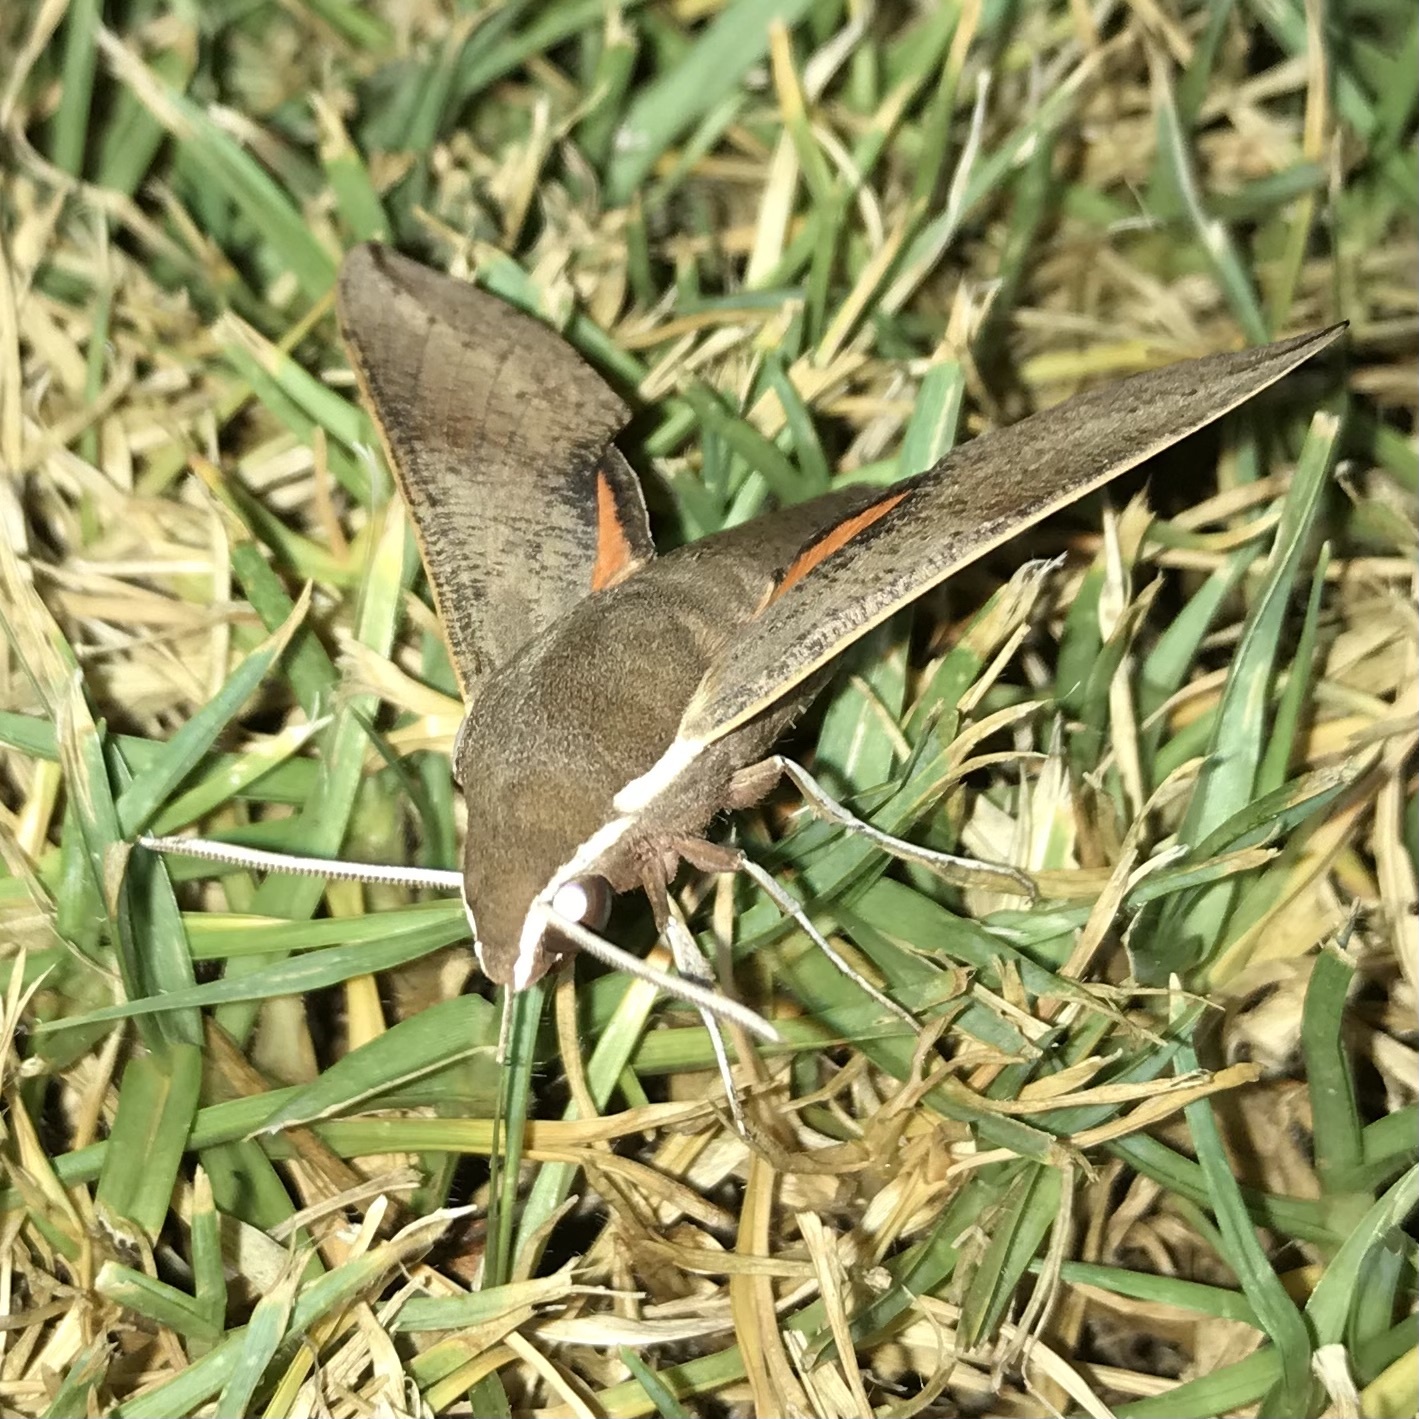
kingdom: Animalia
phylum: Arthropoda
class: Insecta
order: Lepidoptera
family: Sphingidae
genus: Hippotion
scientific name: Hippotion scrofa
